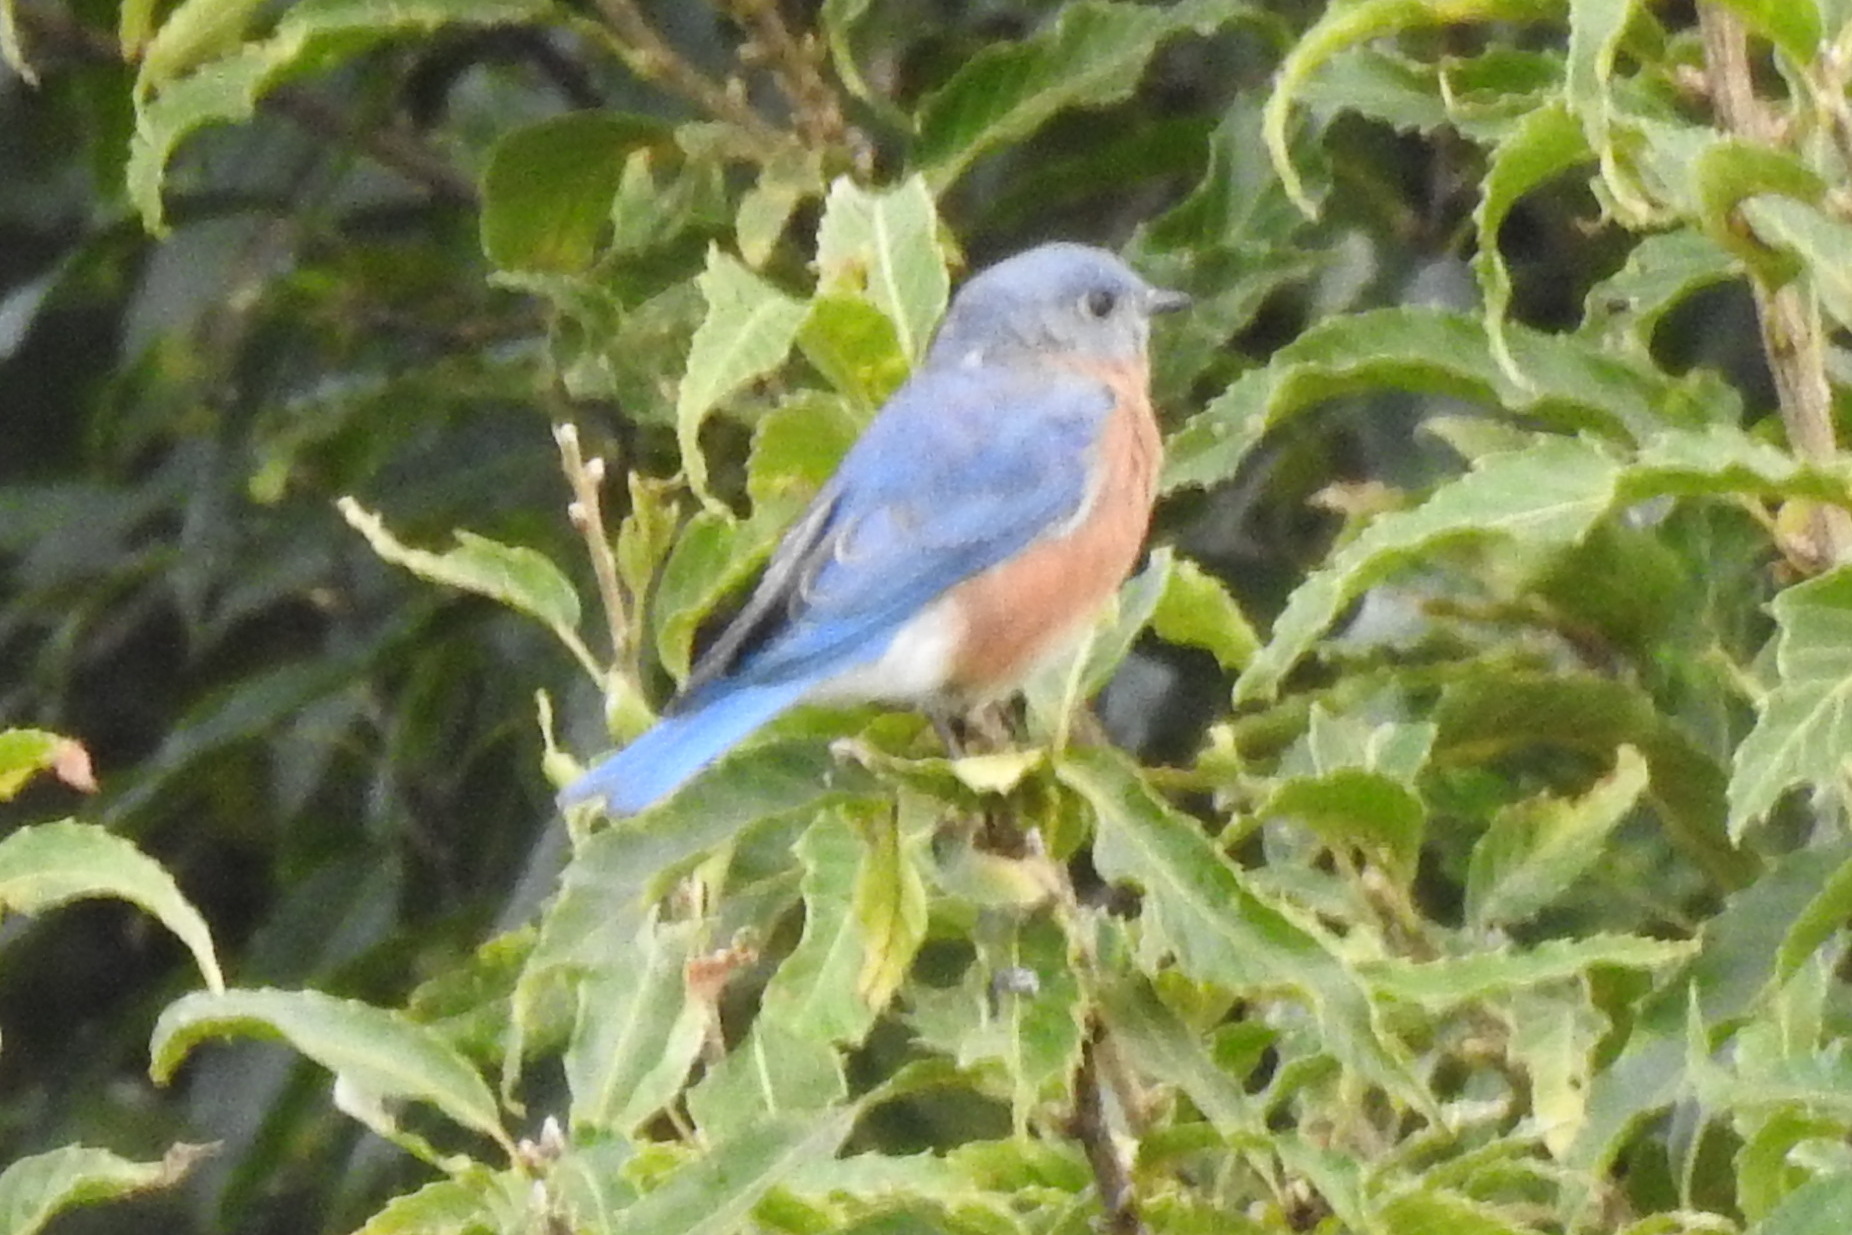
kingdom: Animalia
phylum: Chordata
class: Aves
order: Passeriformes
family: Turdidae
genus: Sialia
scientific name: Sialia sialis
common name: Eastern bluebird
